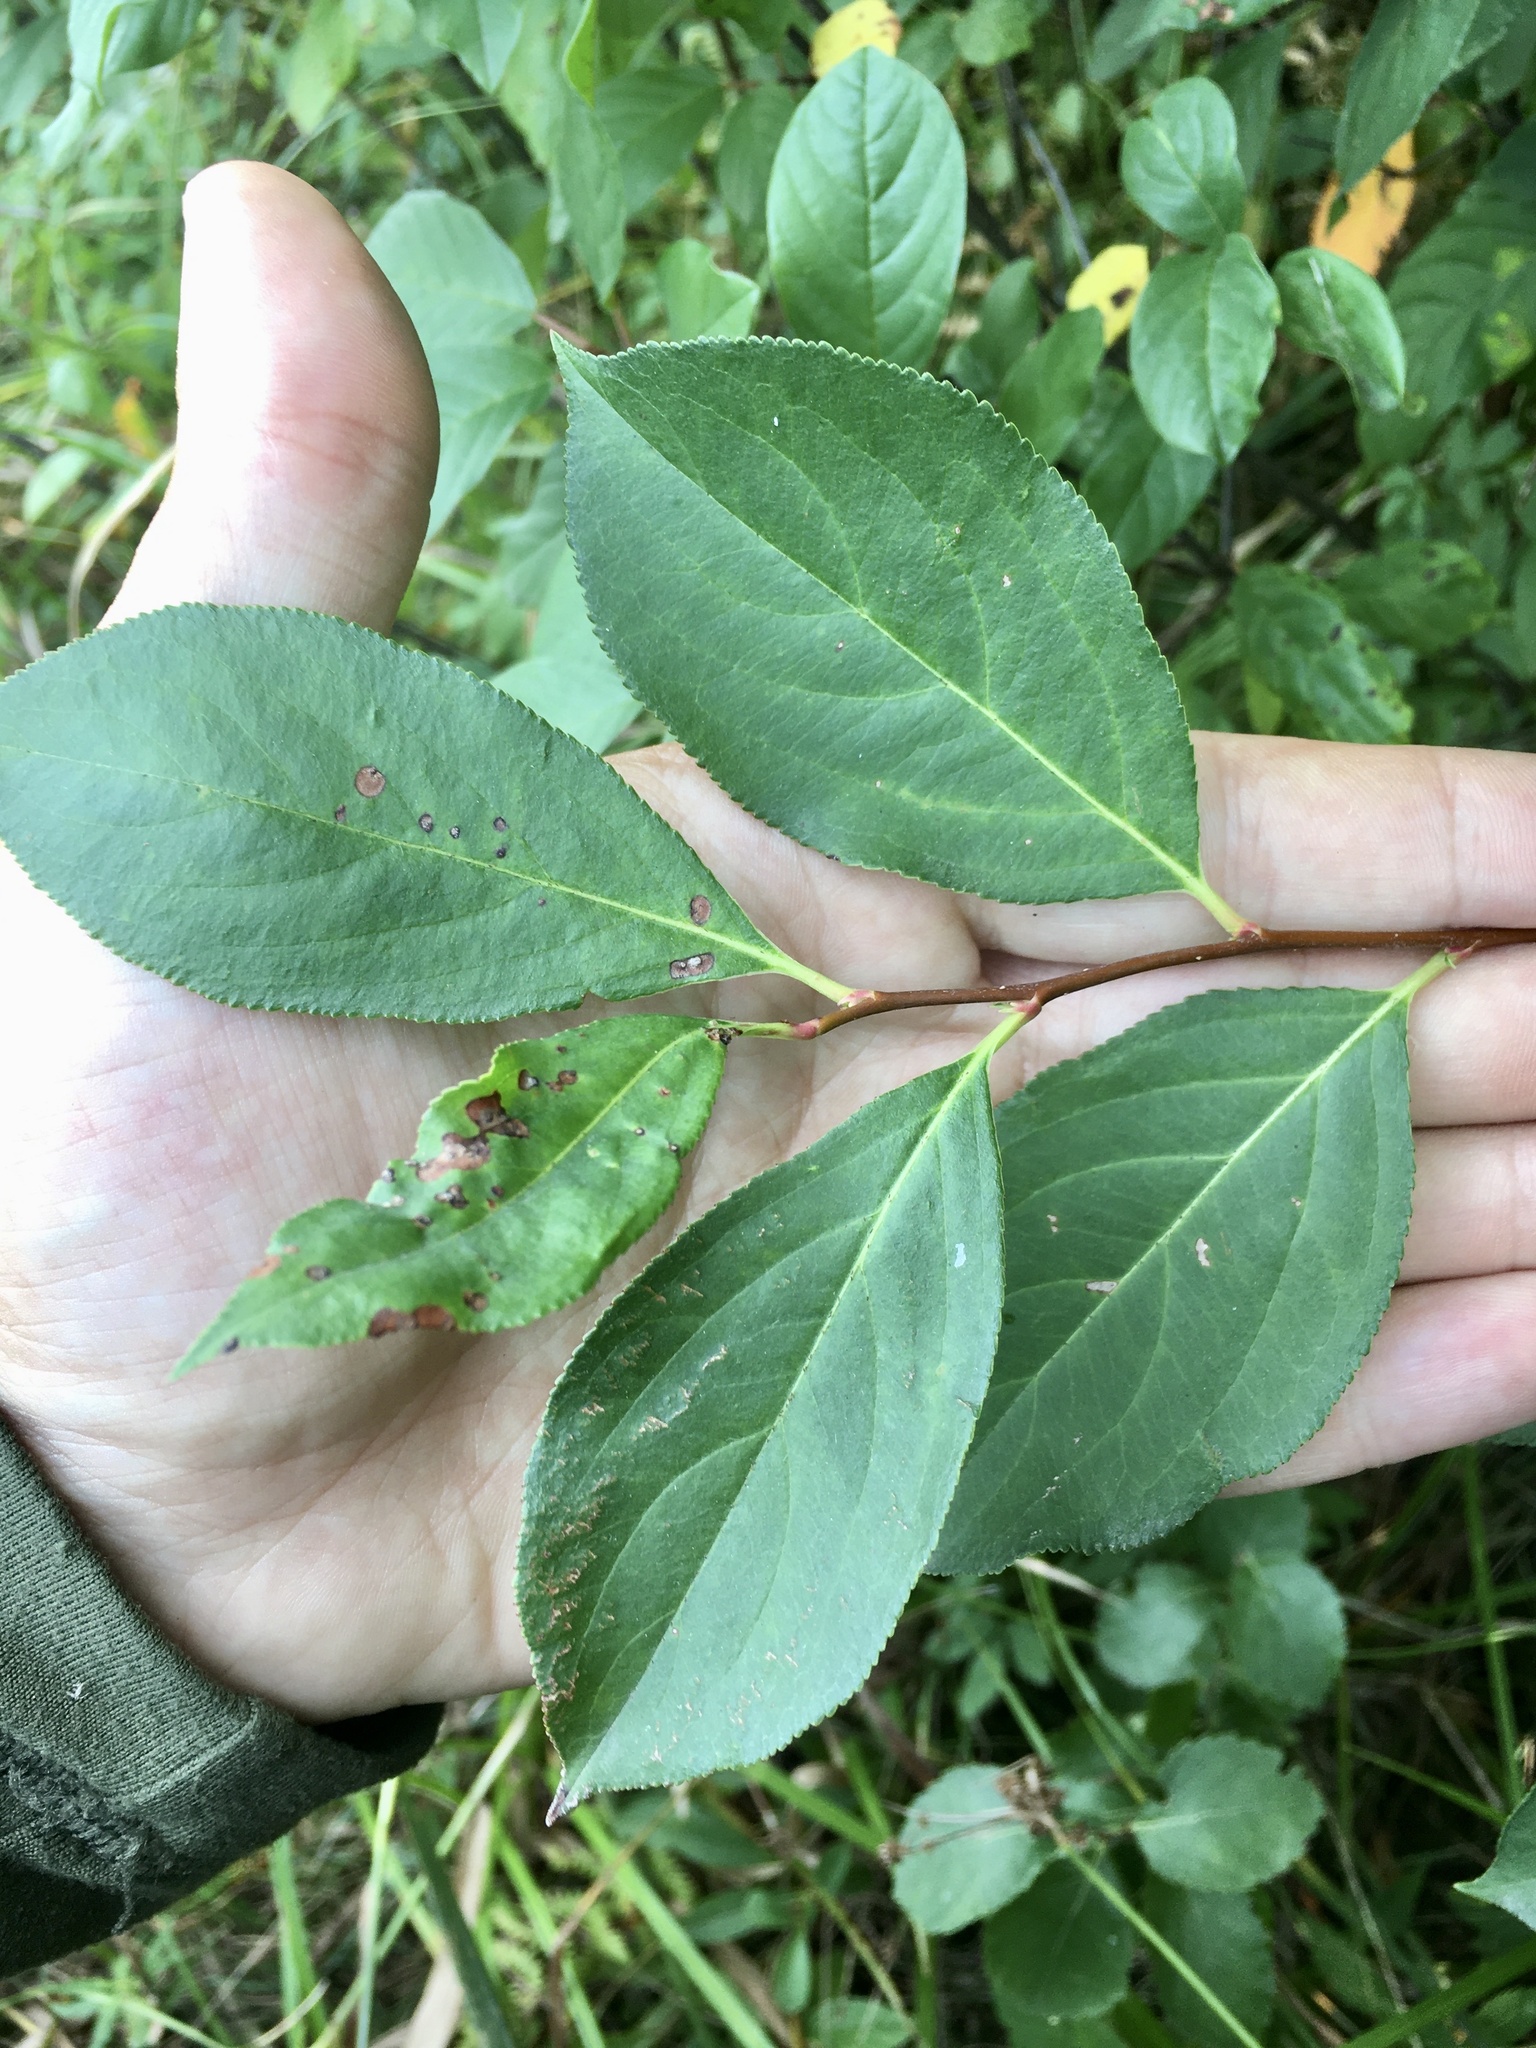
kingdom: Plantae
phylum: Tracheophyta
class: Magnoliopsida
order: Rosales
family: Rosaceae
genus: Aronia
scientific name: Aronia melanocarpa
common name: Black chokeberry
